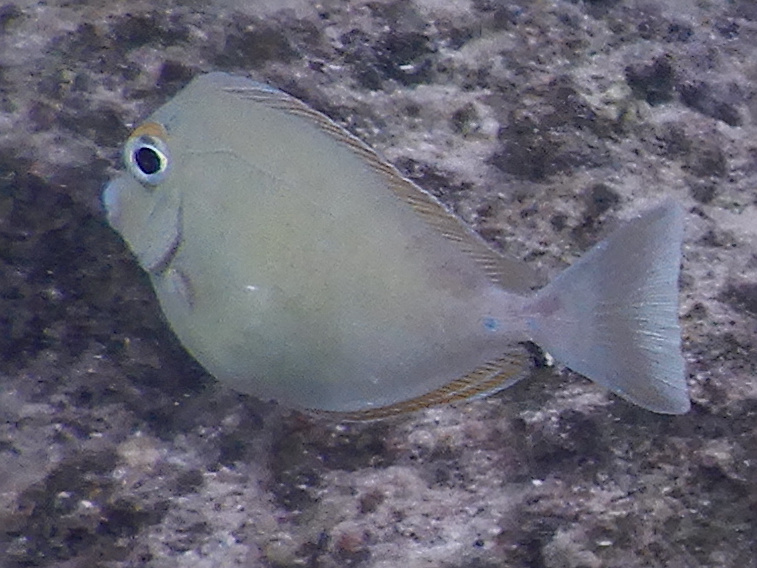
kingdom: Animalia
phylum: Chordata
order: Perciformes
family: Acanthuridae
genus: Naso
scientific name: Naso unicornis
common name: Bluespine unicornfish
